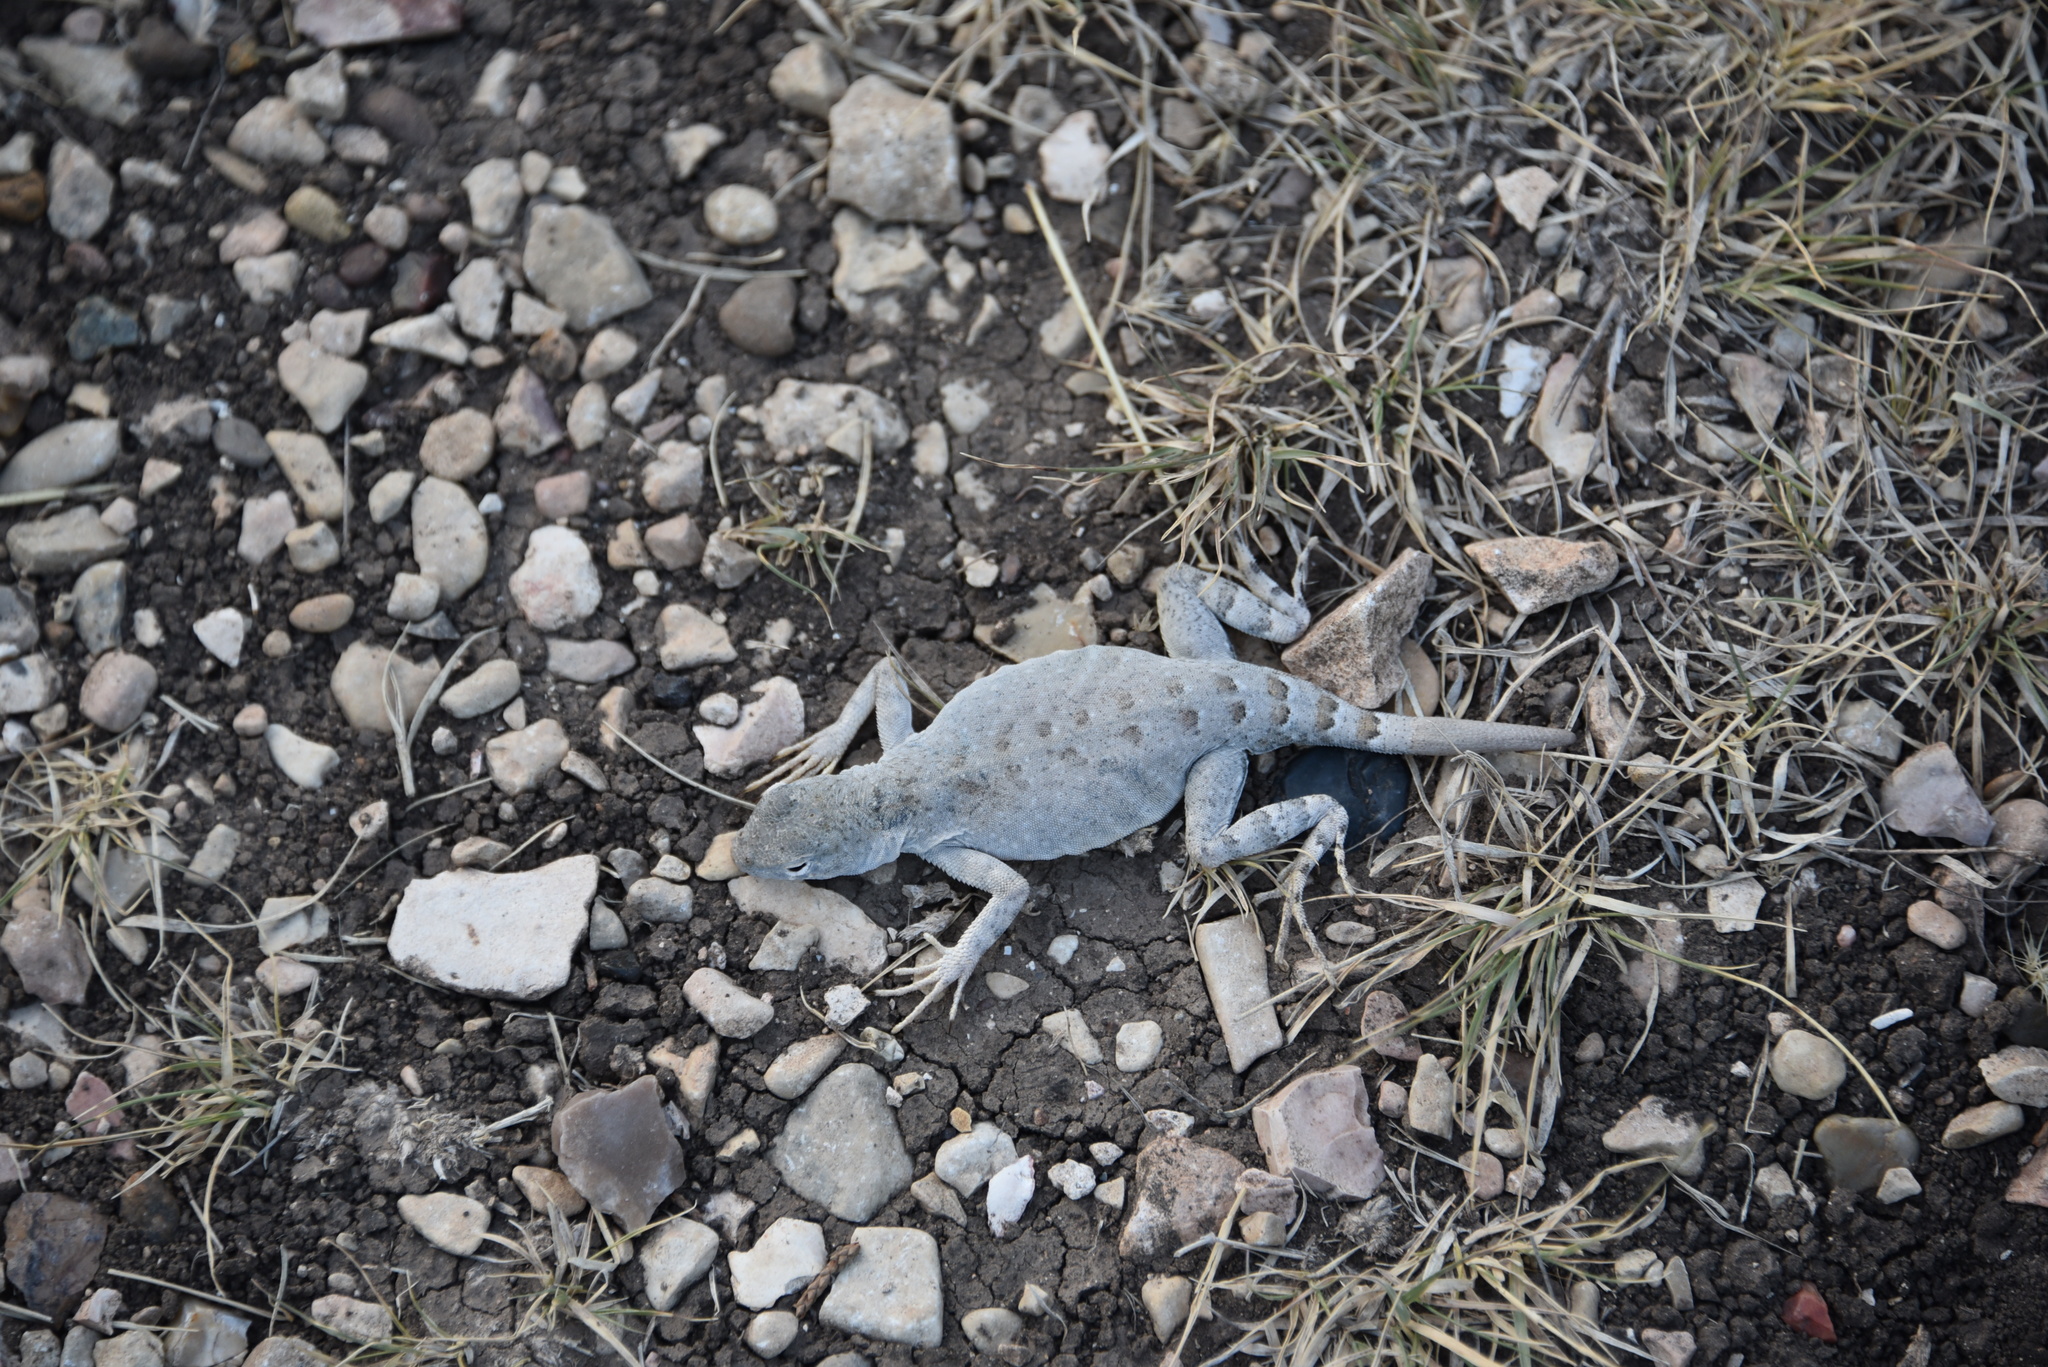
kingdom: Animalia
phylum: Chordata
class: Squamata
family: Phrynosomatidae
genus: Cophosaurus
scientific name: Cophosaurus texanus
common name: Greater earless lizard
